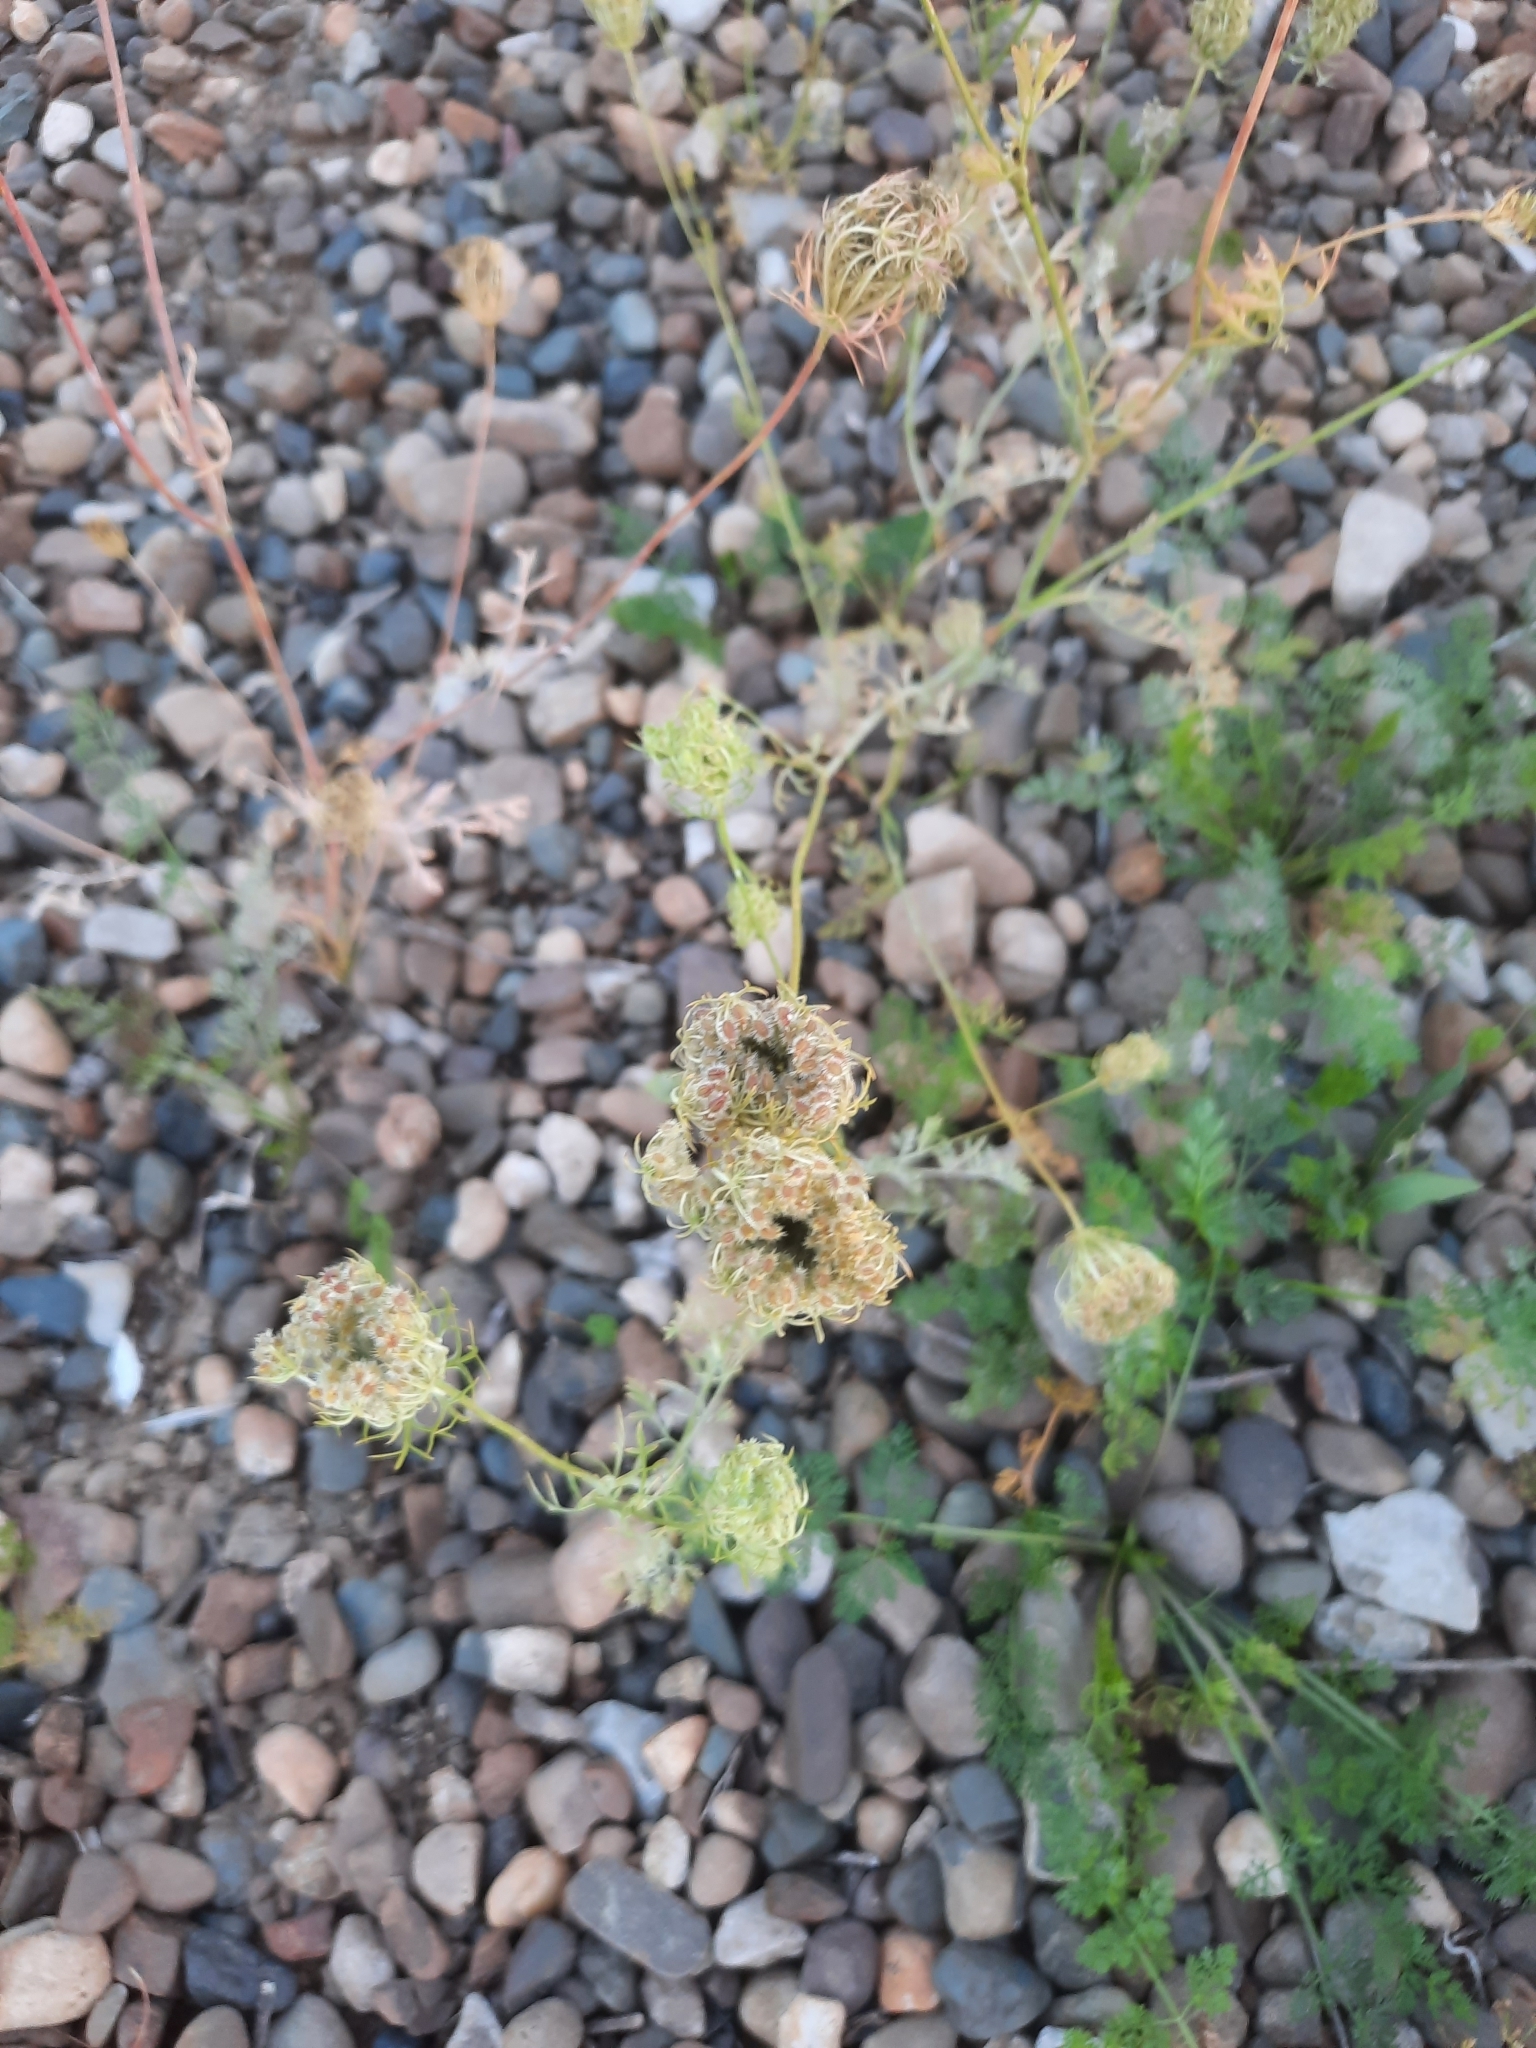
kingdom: Plantae
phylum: Tracheophyta
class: Magnoliopsida
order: Apiales
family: Apiaceae
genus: Daucus
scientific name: Daucus carota
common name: Wild carrot
